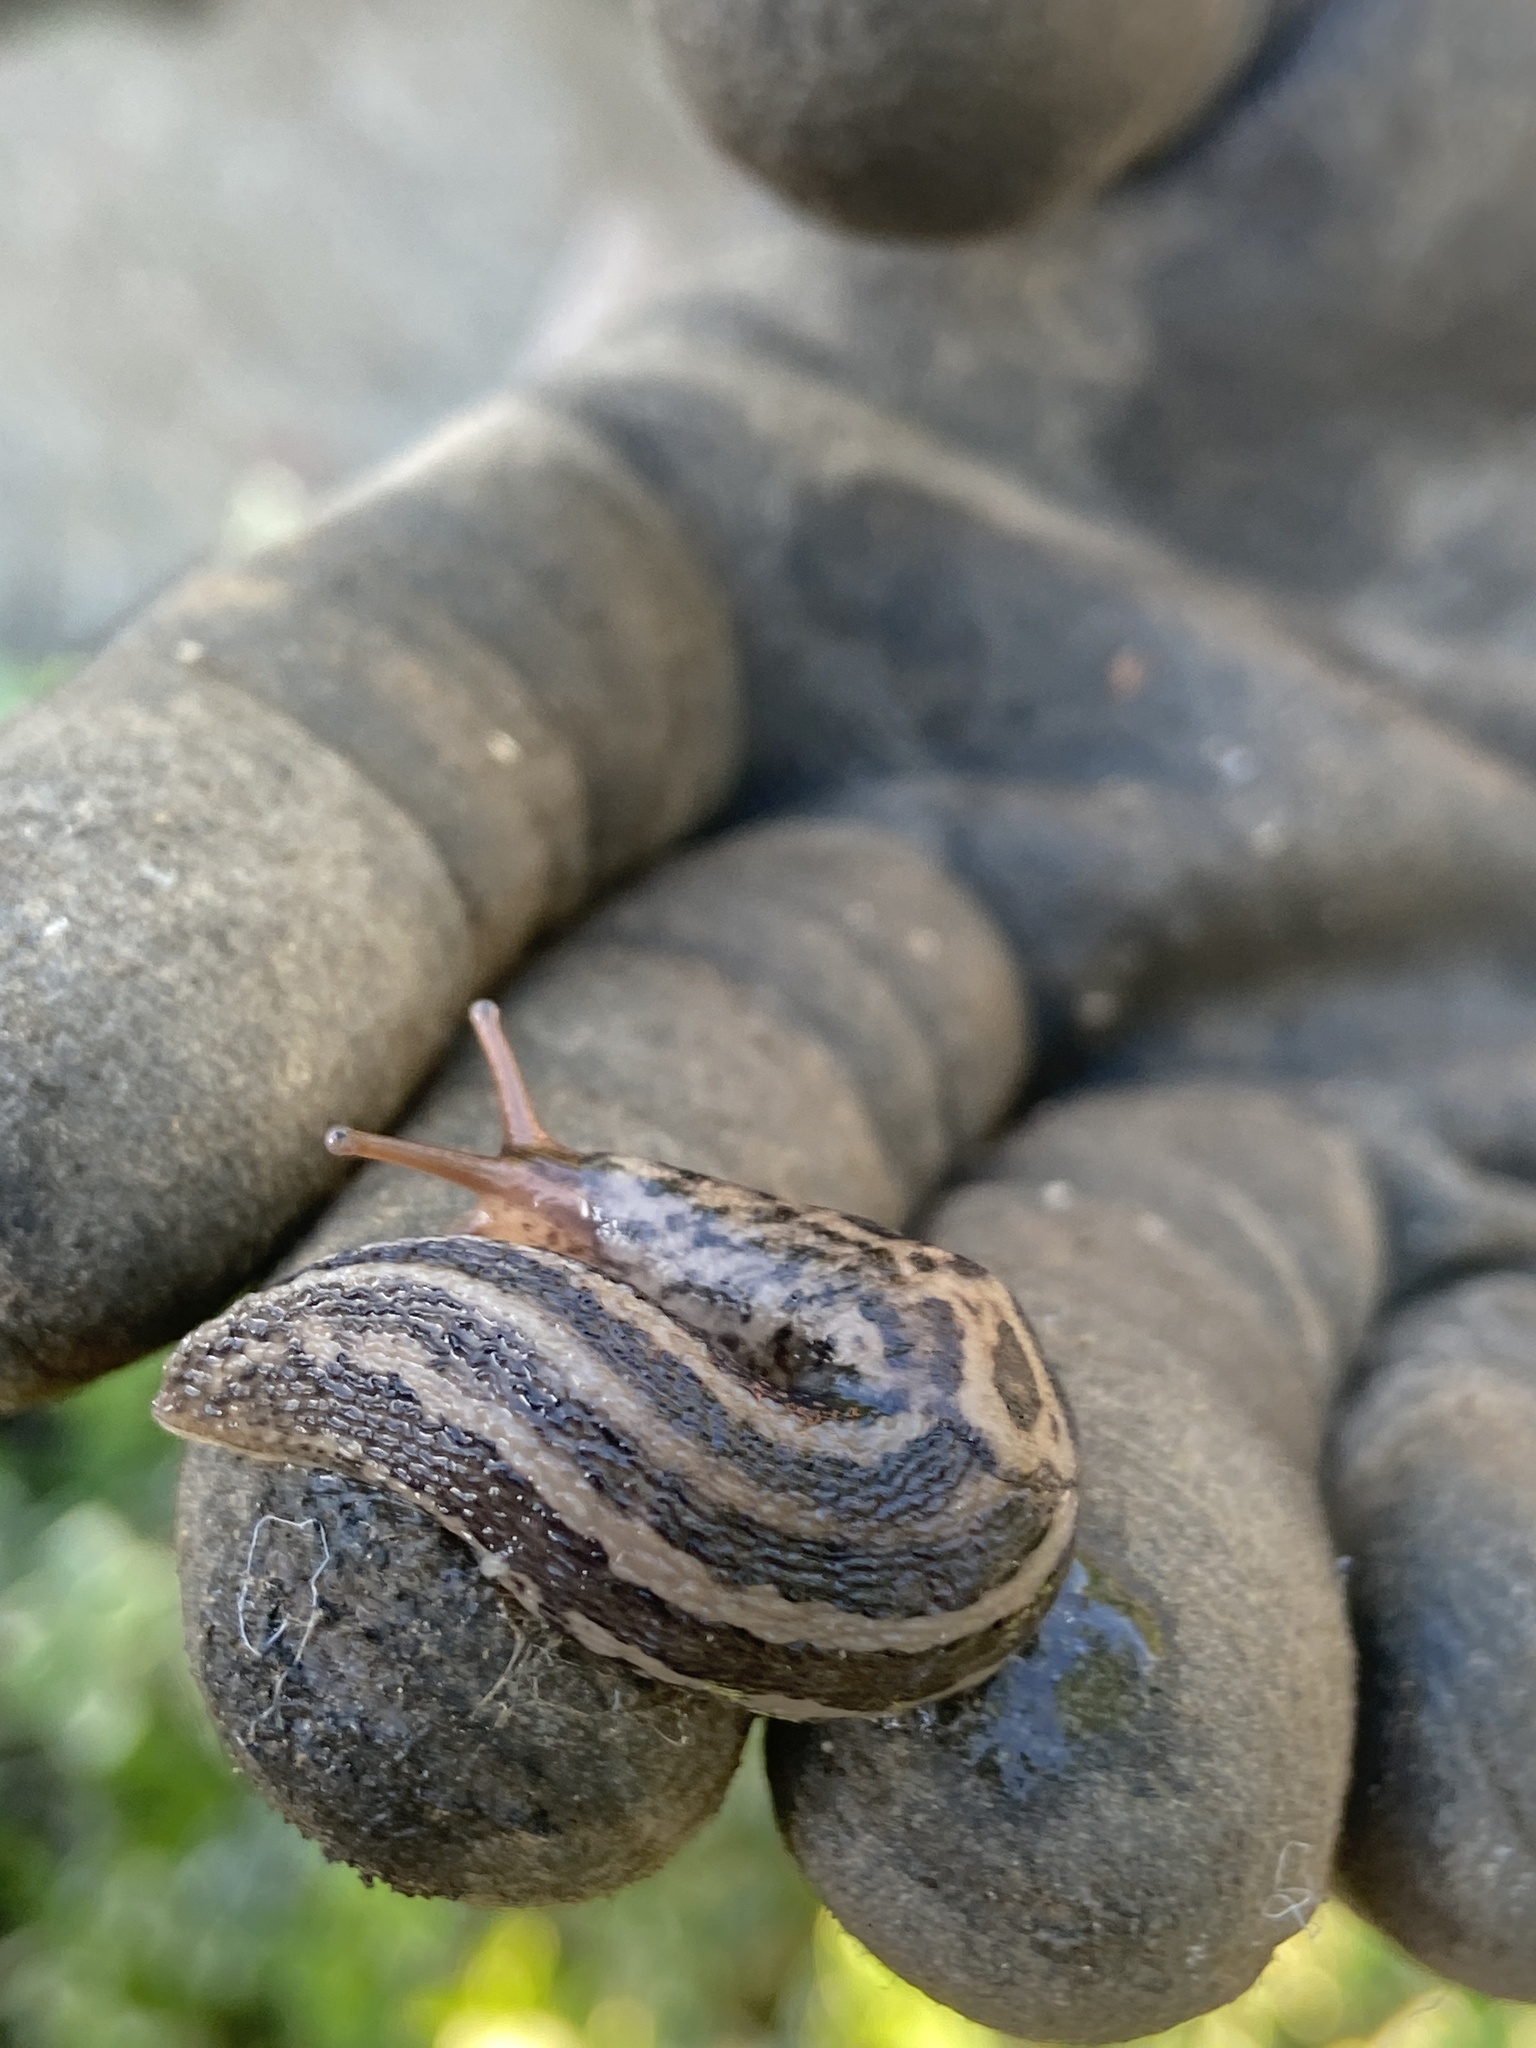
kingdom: Animalia
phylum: Mollusca
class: Gastropoda
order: Stylommatophora
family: Limacidae
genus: Limax
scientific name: Limax maximus
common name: Great grey slug
